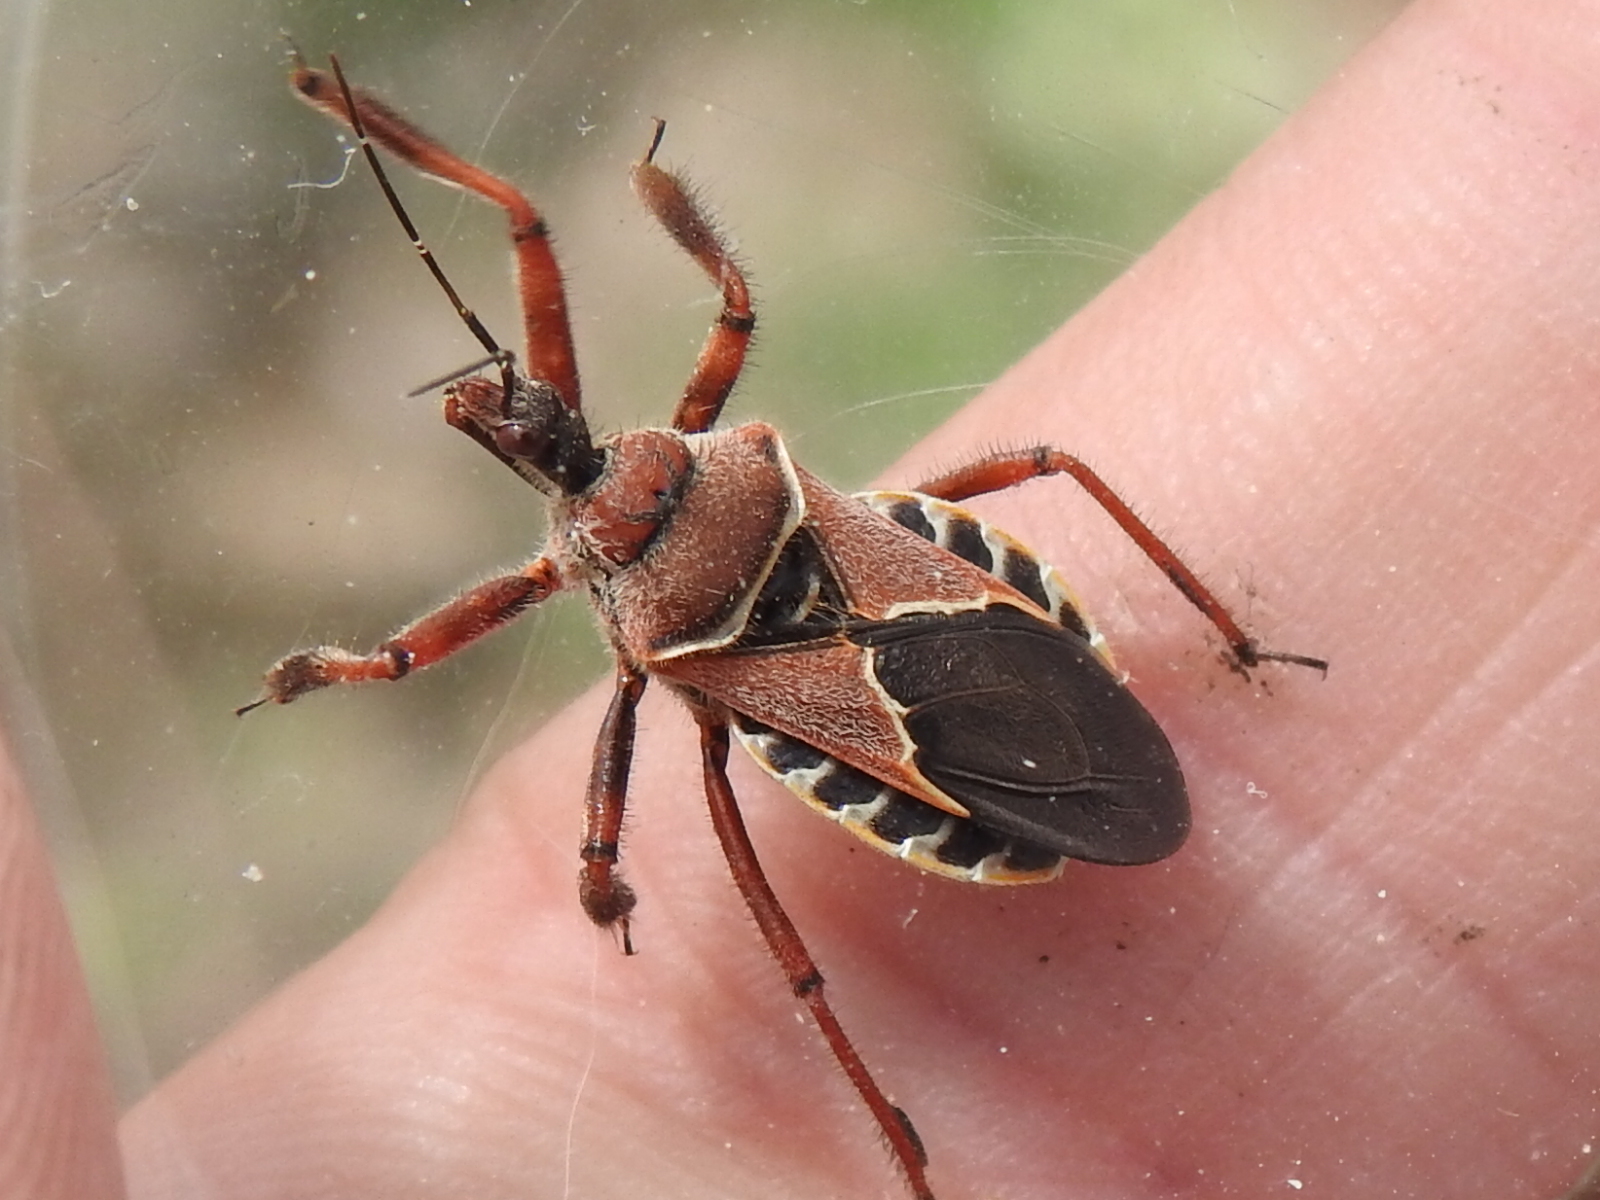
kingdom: Animalia
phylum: Arthropoda
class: Insecta
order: Hemiptera
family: Reduviidae
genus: Apiomerus
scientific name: Apiomerus spissipes
